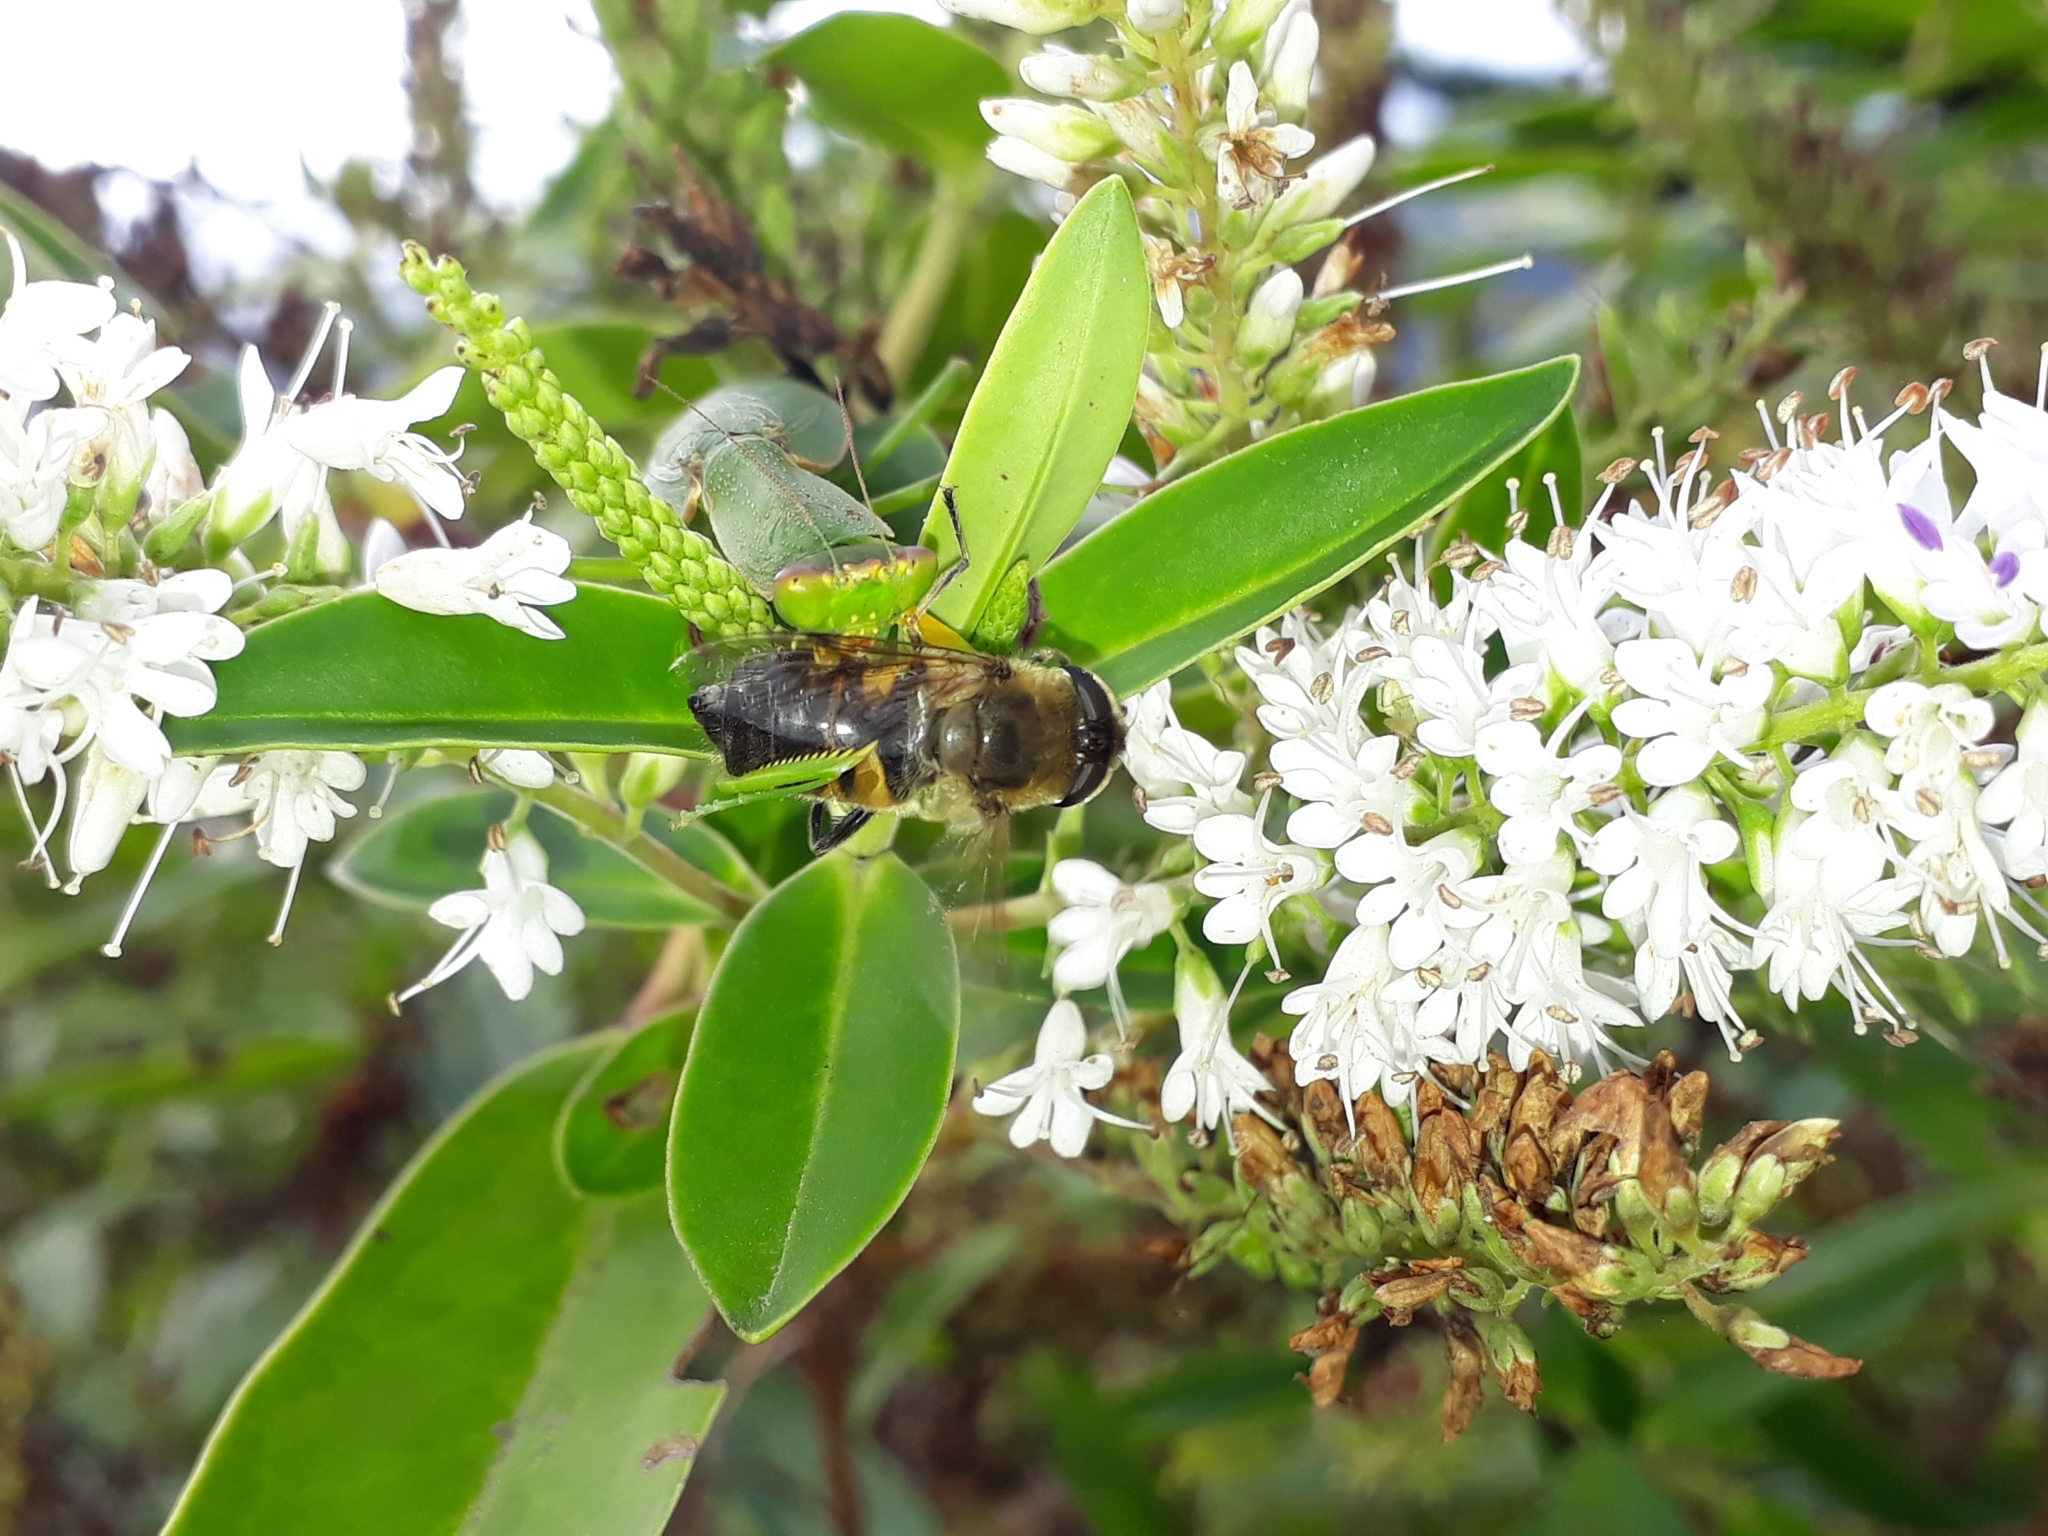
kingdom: Animalia
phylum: Arthropoda
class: Insecta
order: Mantodea
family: Mantidae
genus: Orthodera
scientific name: Orthodera novaezealandiae
